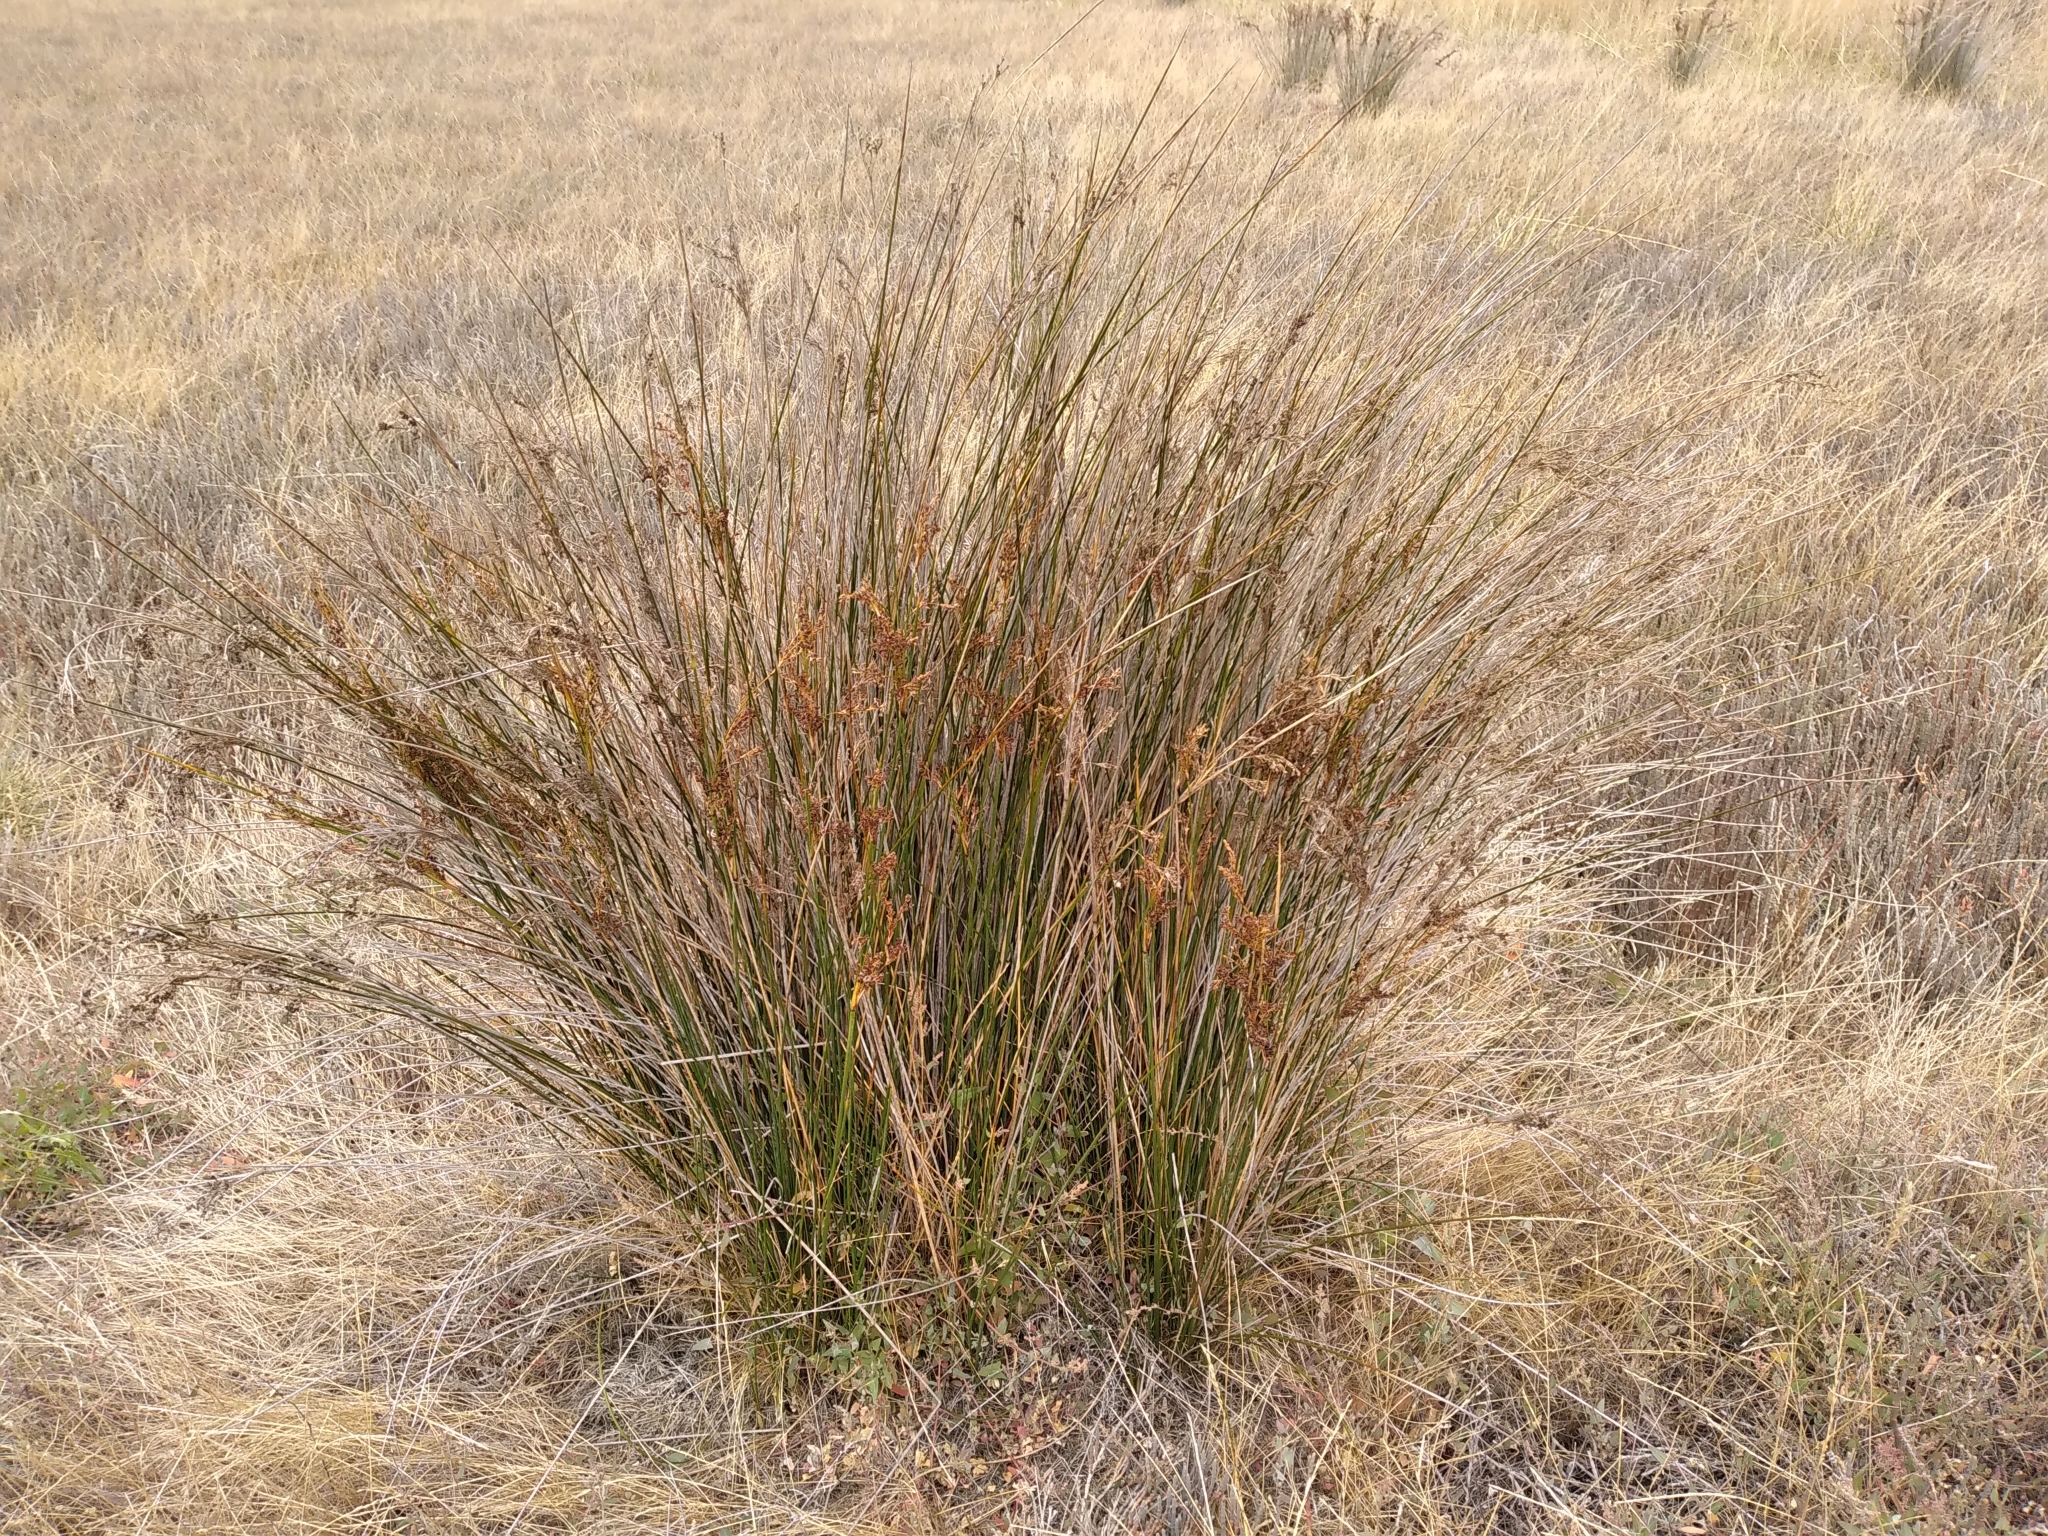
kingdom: Plantae
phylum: Tracheophyta
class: Liliopsida
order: Poales
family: Juncaceae
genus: Juncus
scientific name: Juncus kraussii
